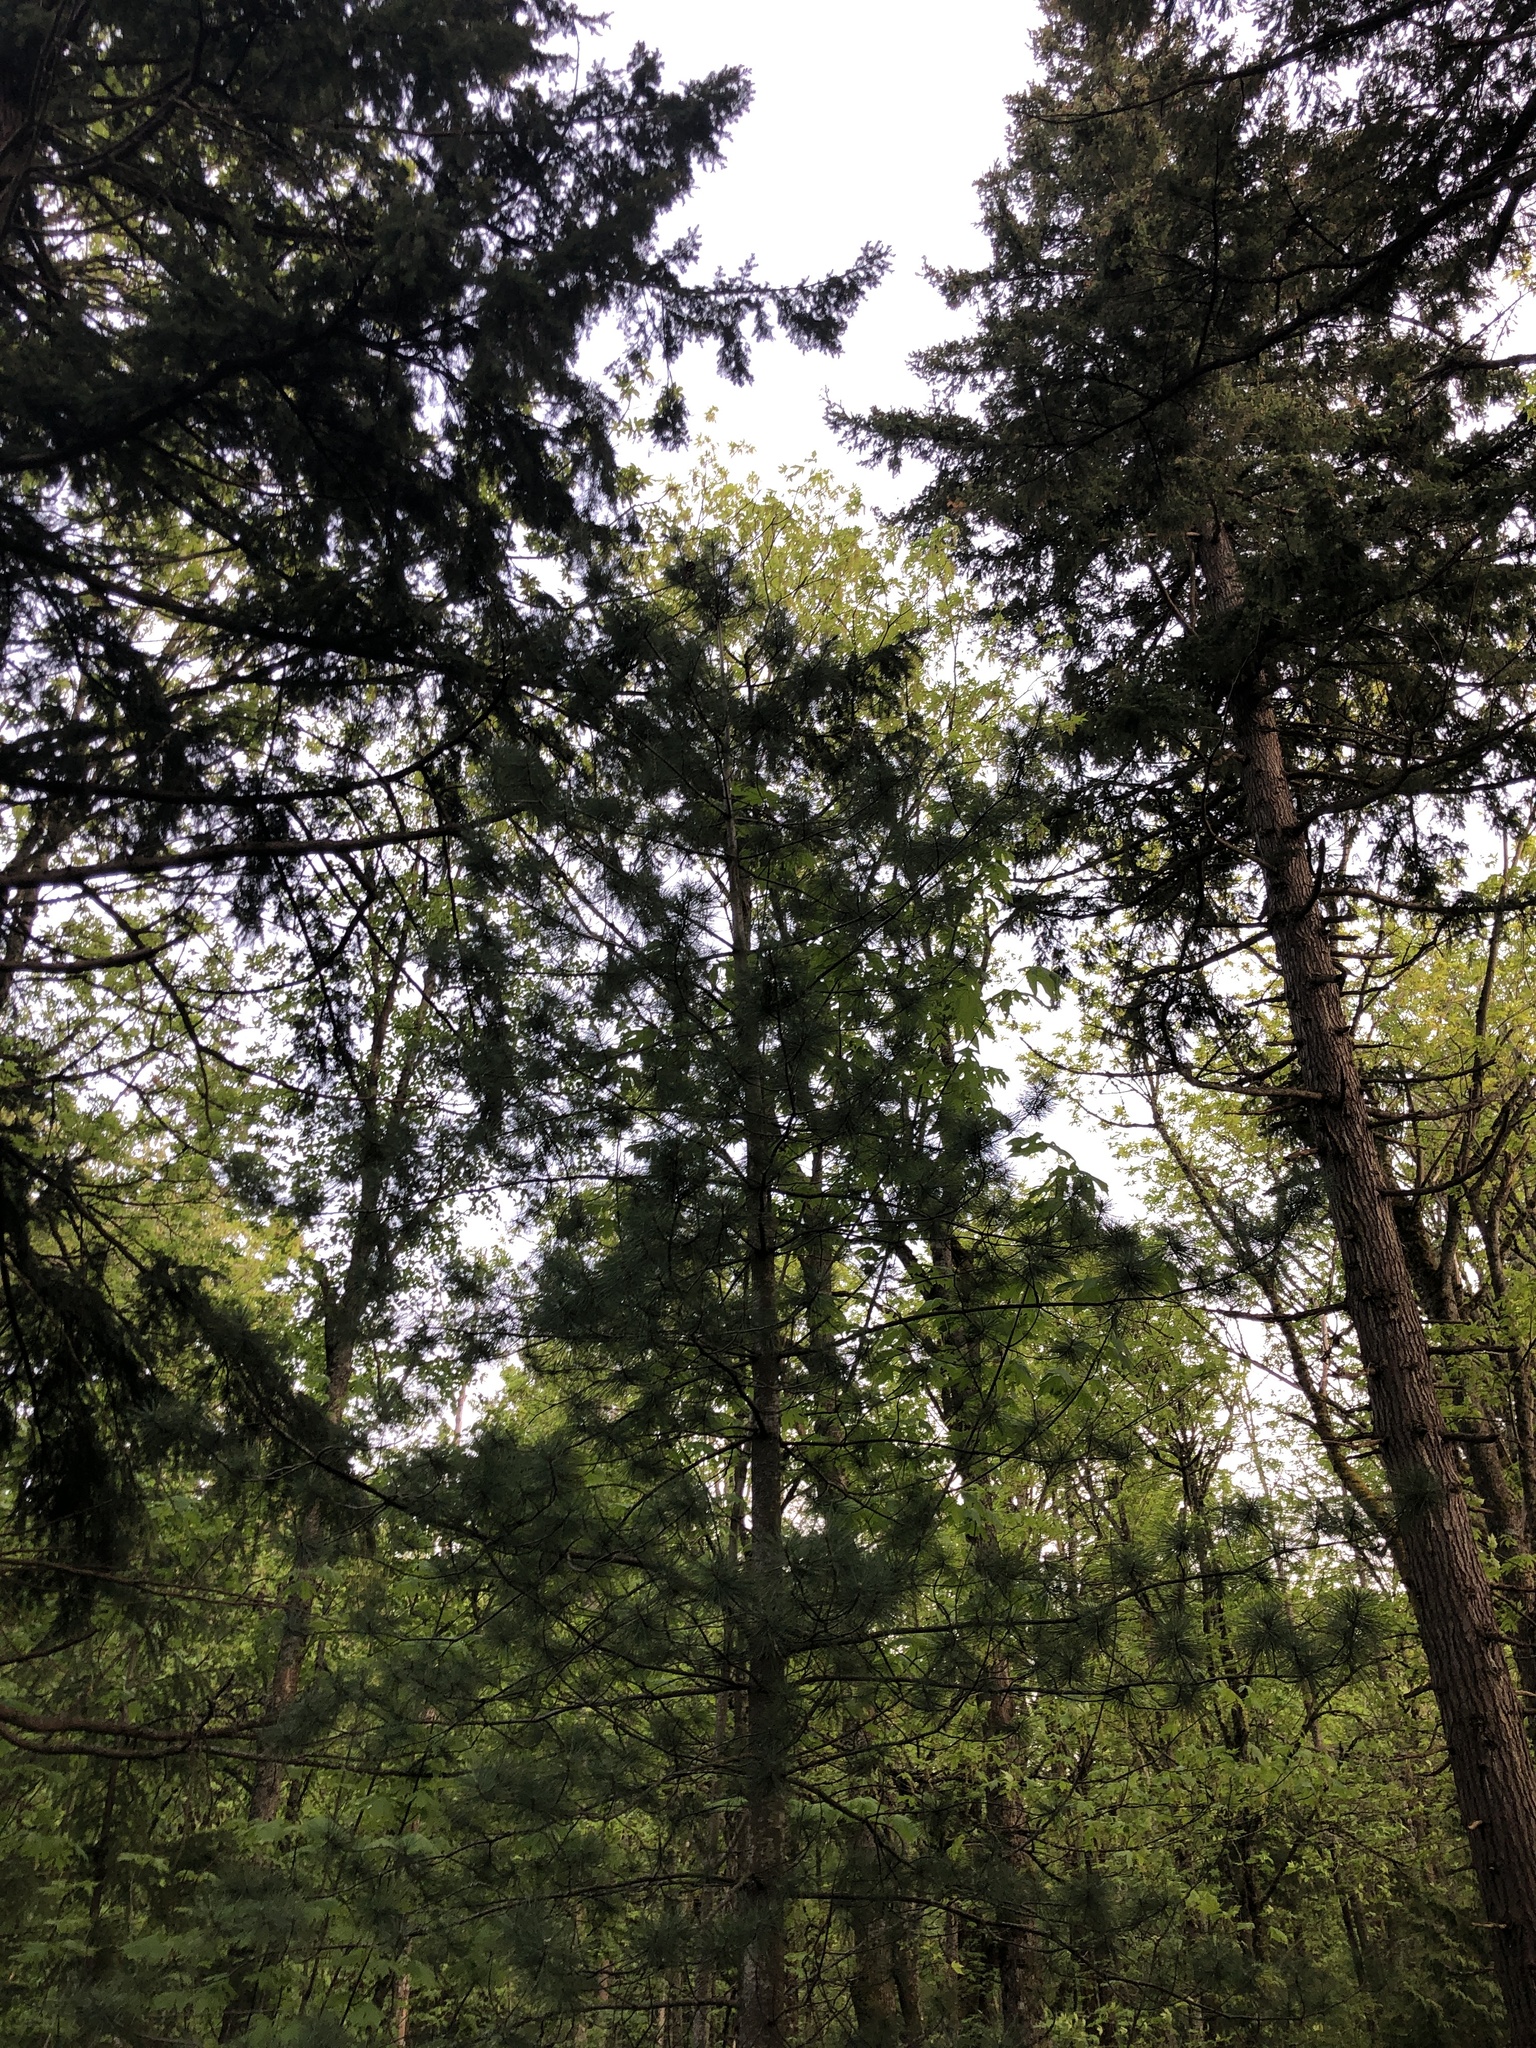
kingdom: Plantae
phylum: Tracheophyta
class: Pinopsida
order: Pinales
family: Pinaceae
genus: Pinus
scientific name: Pinus monticola
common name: Western white pine
